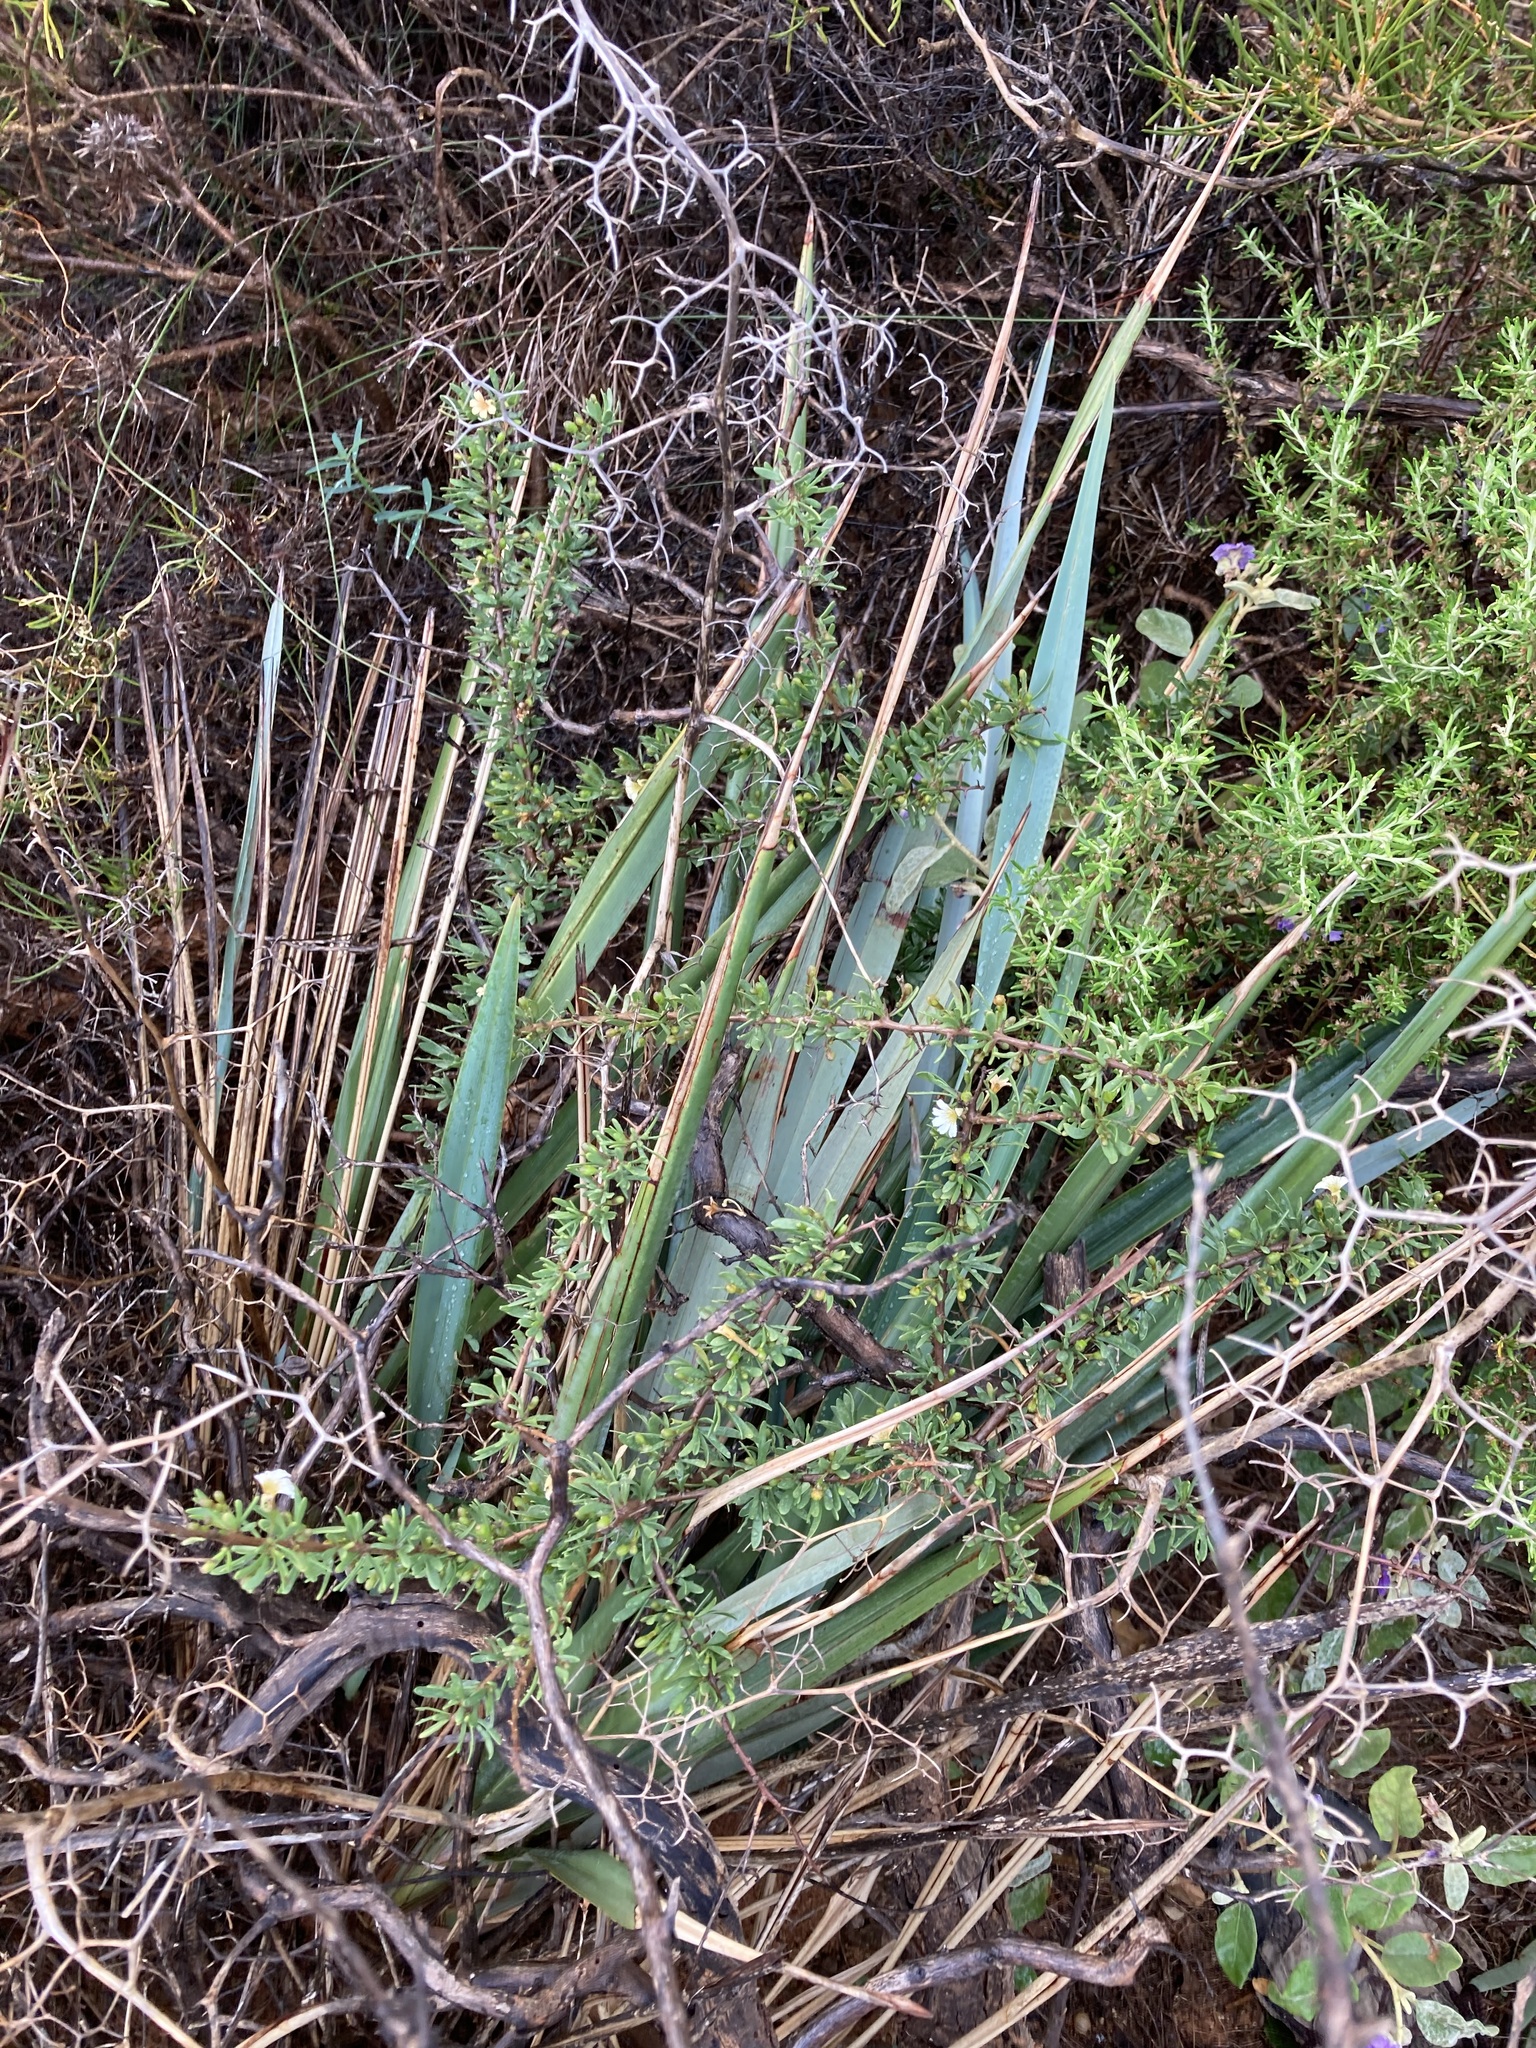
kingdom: Plantae
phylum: Tracheophyta
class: Liliopsida
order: Asparagales
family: Asphodelaceae
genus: Dianella
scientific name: Dianella revoluta
